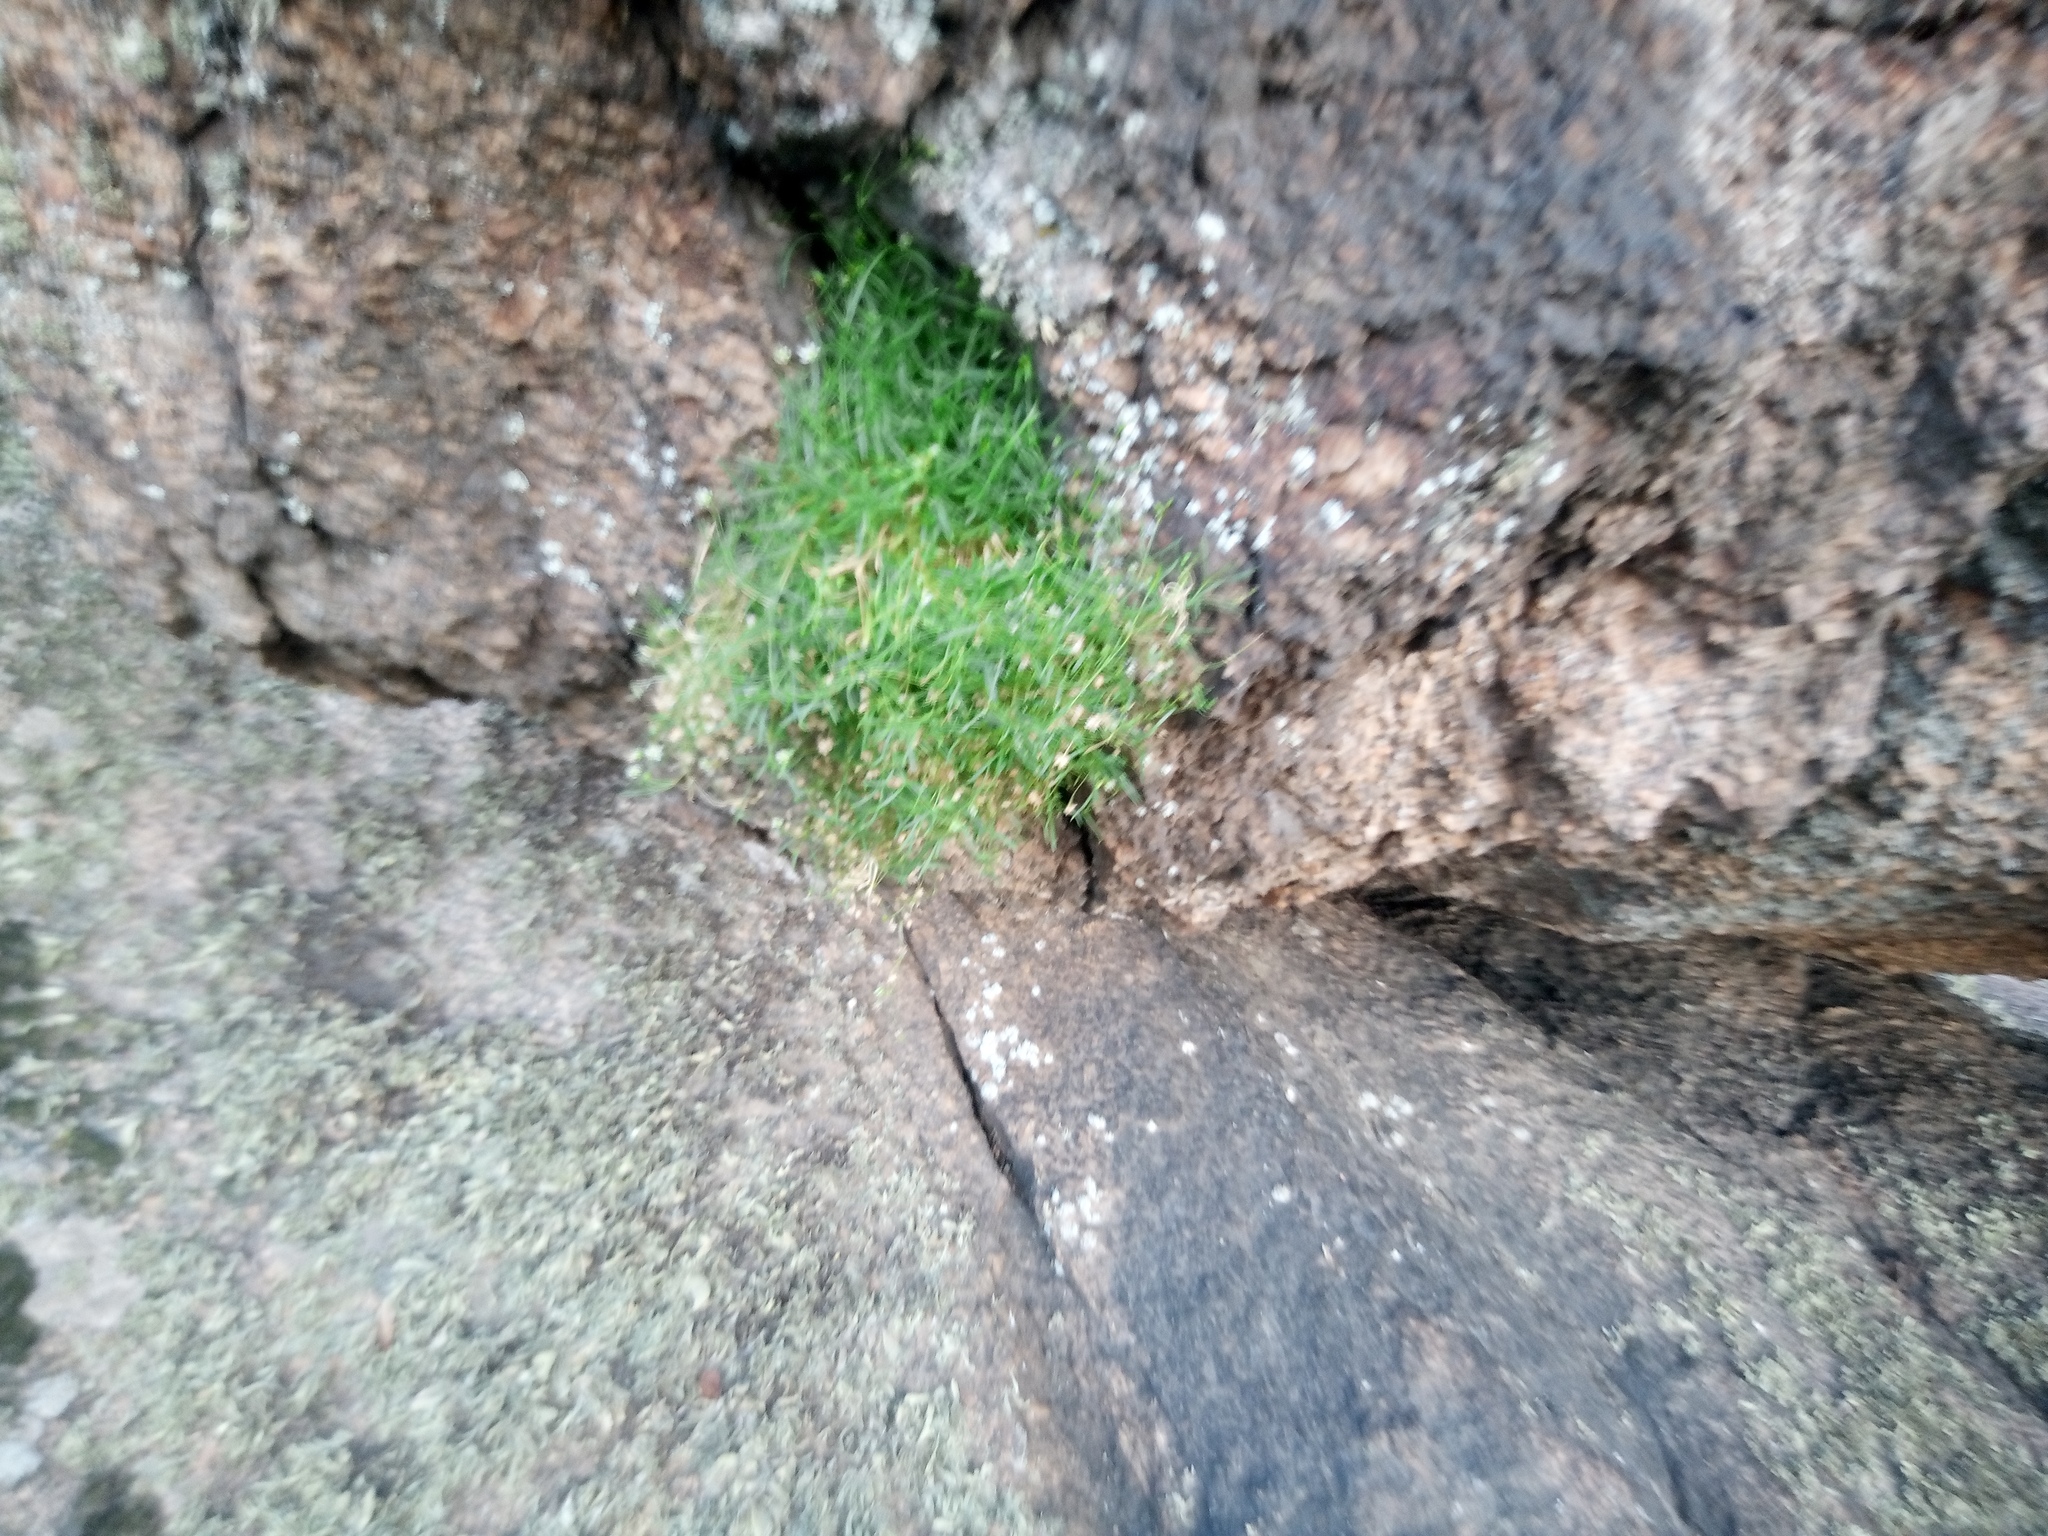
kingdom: Plantae
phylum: Tracheophyta
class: Magnoliopsida
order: Caryophyllales
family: Caryophyllaceae
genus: Moehringia
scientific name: Moehringia hypanica
